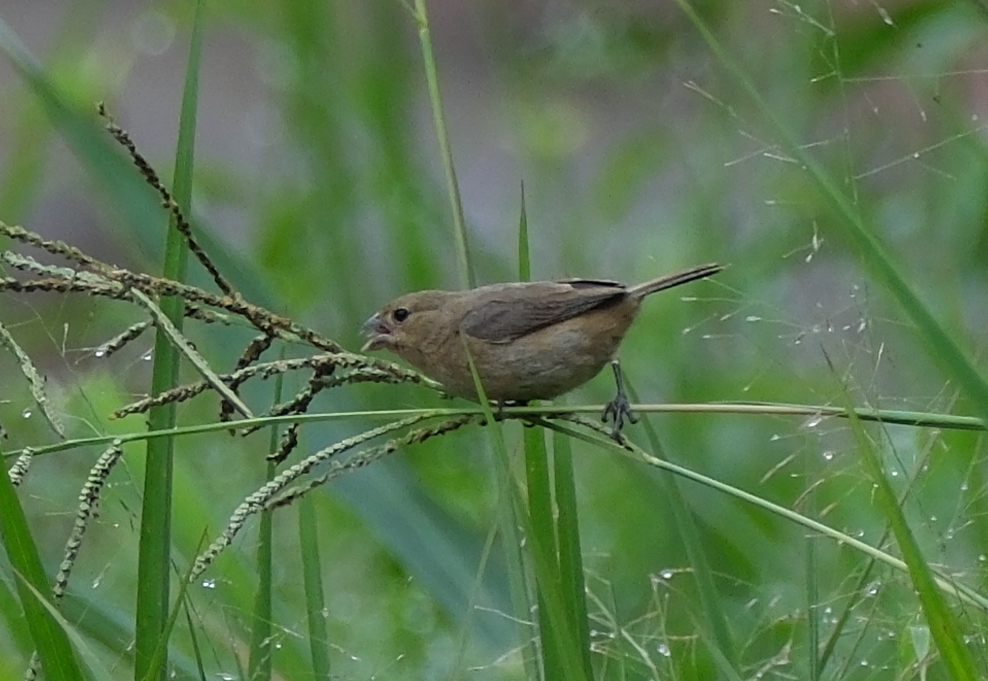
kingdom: Animalia
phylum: Chordata
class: Aves
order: Passeriformes
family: Thraupidae
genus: Asemospiza
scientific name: Asemospiza obscura
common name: Dull-colored grassquit
